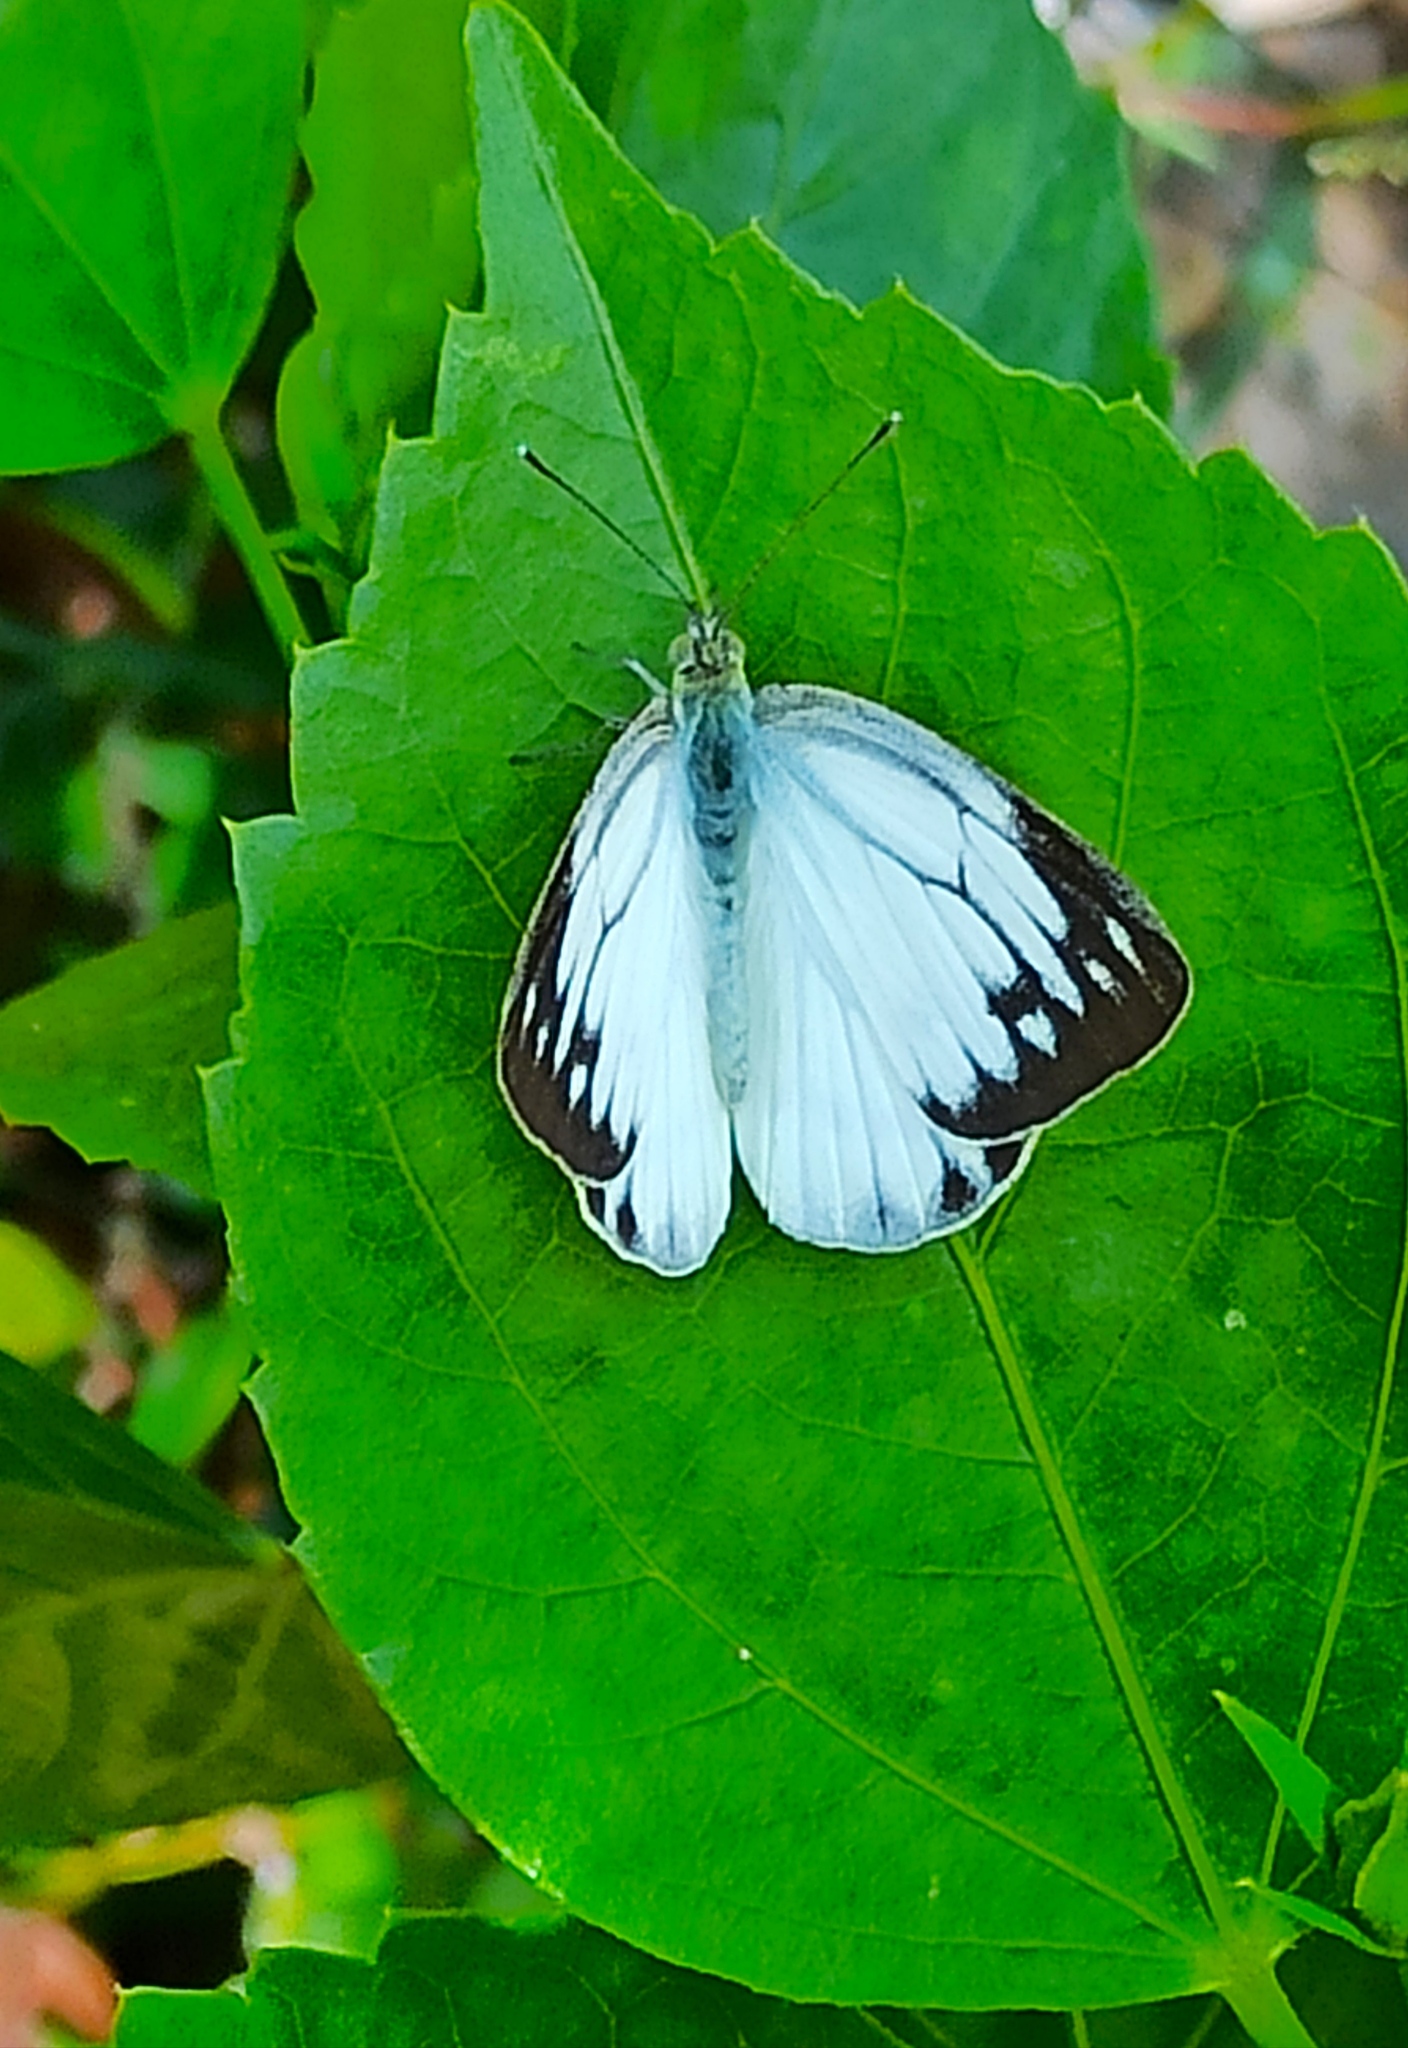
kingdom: Animalia
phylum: Arthropoda
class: Insecta
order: Lepidoptera
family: Pieridae
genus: Cepora
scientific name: Cepora nerissa
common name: Common gull
